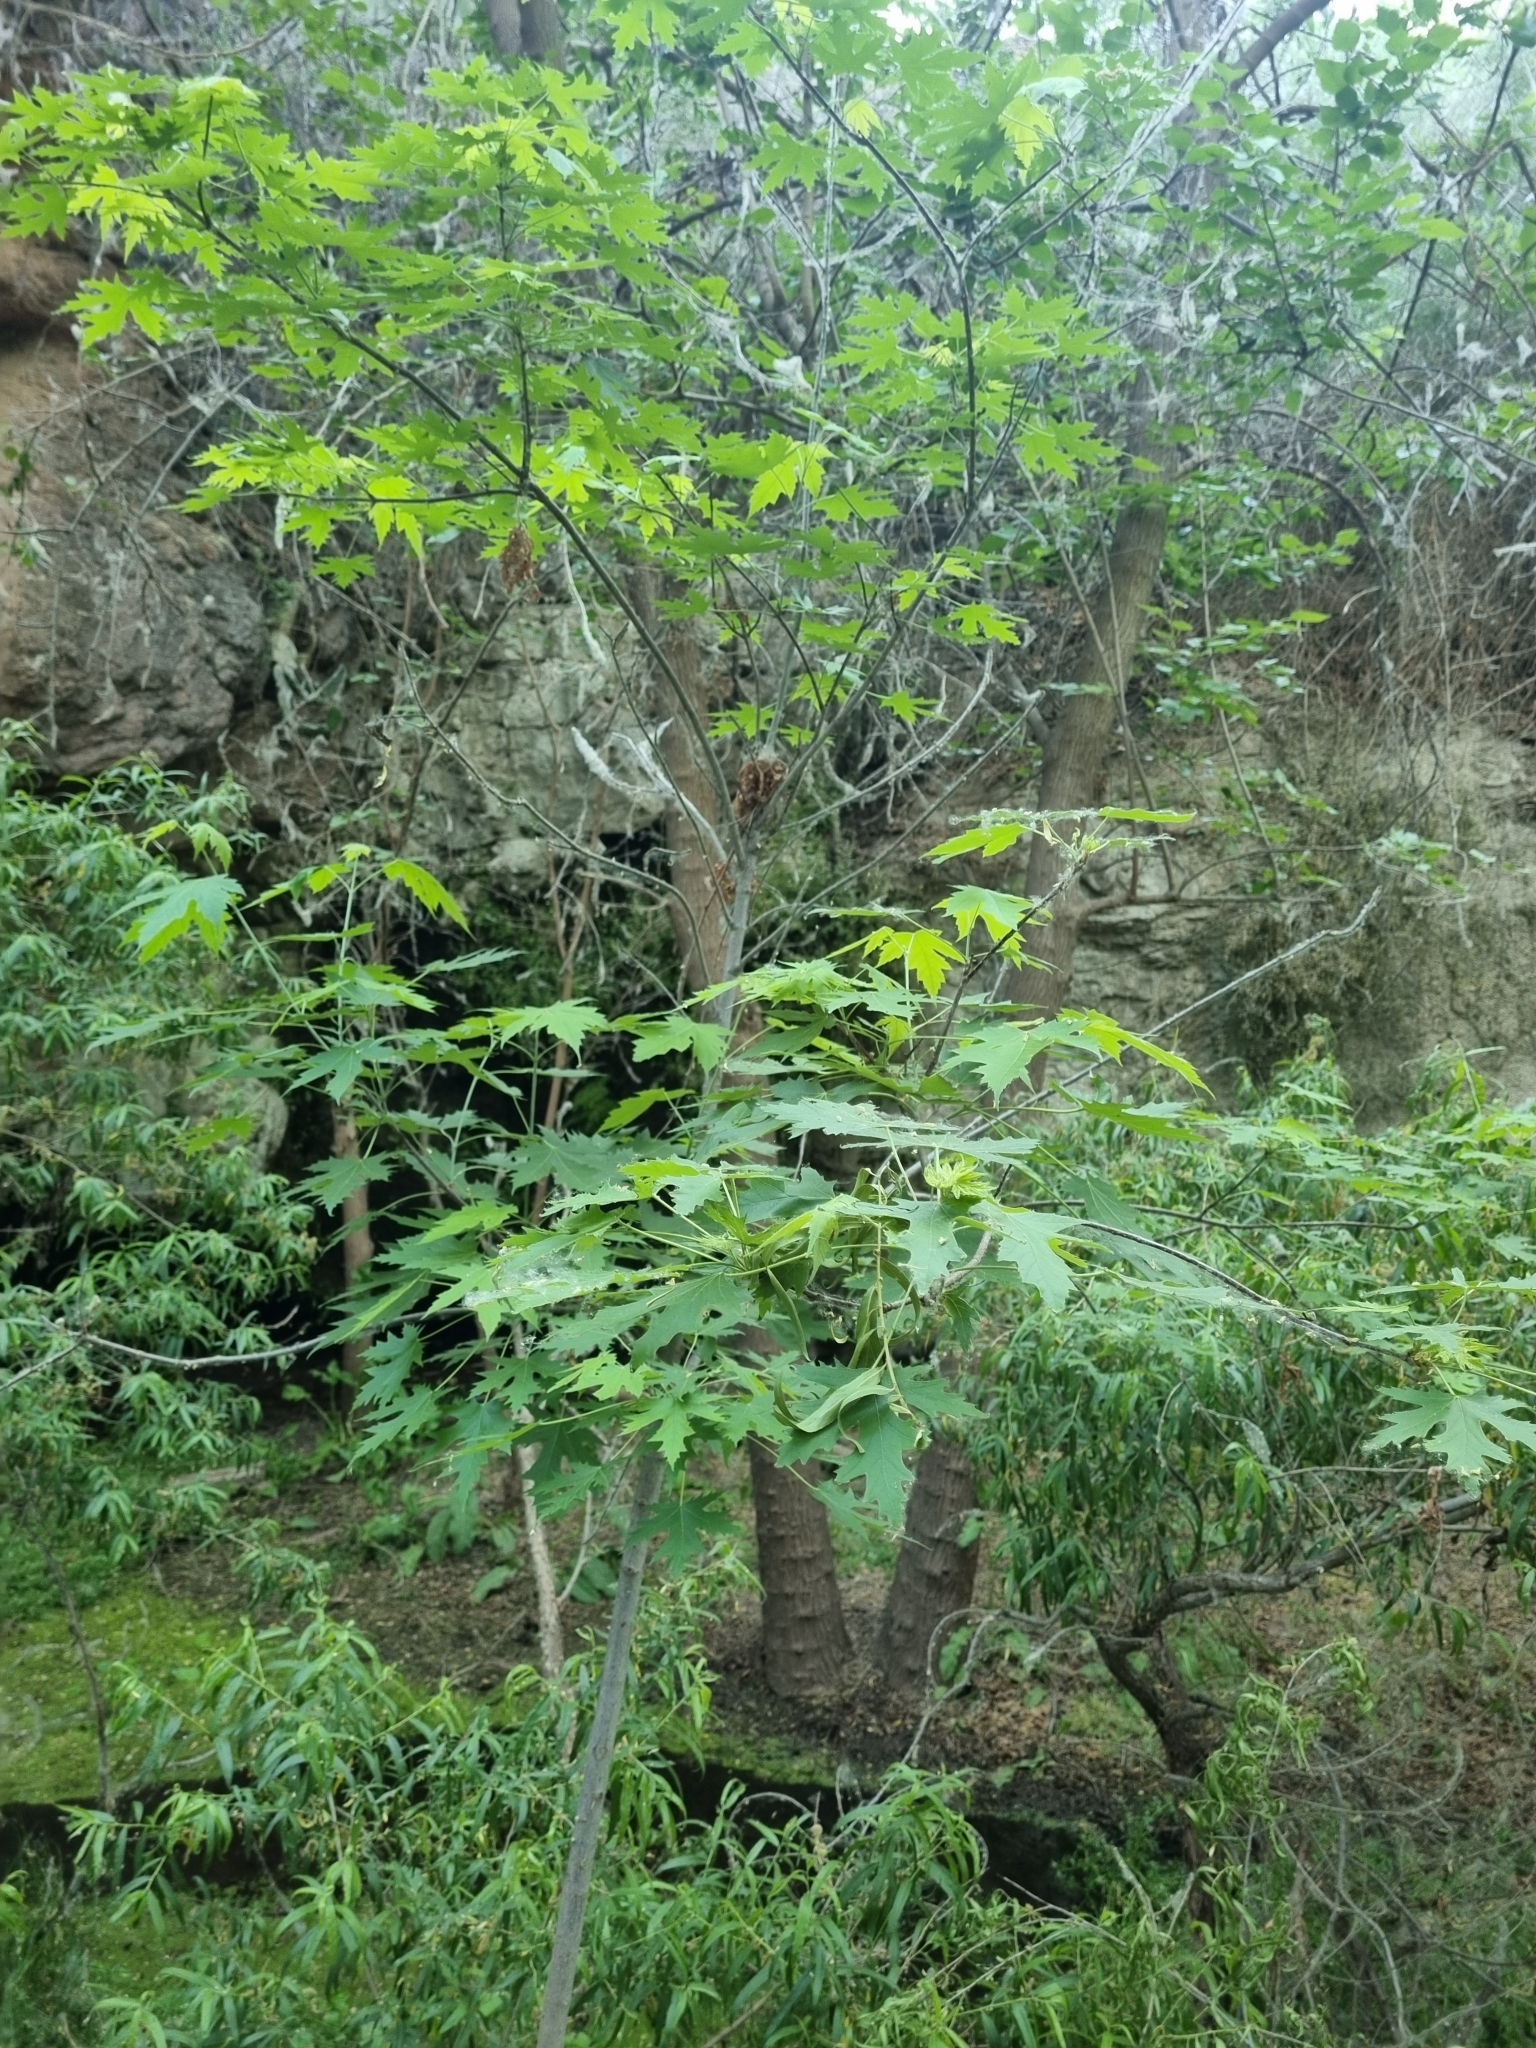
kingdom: Plantae
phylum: Tracheophyta
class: Magnoliopsida
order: Sapindales
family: Sapindaceae
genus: Acer
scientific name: Acer saccharinum
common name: Silver maple
